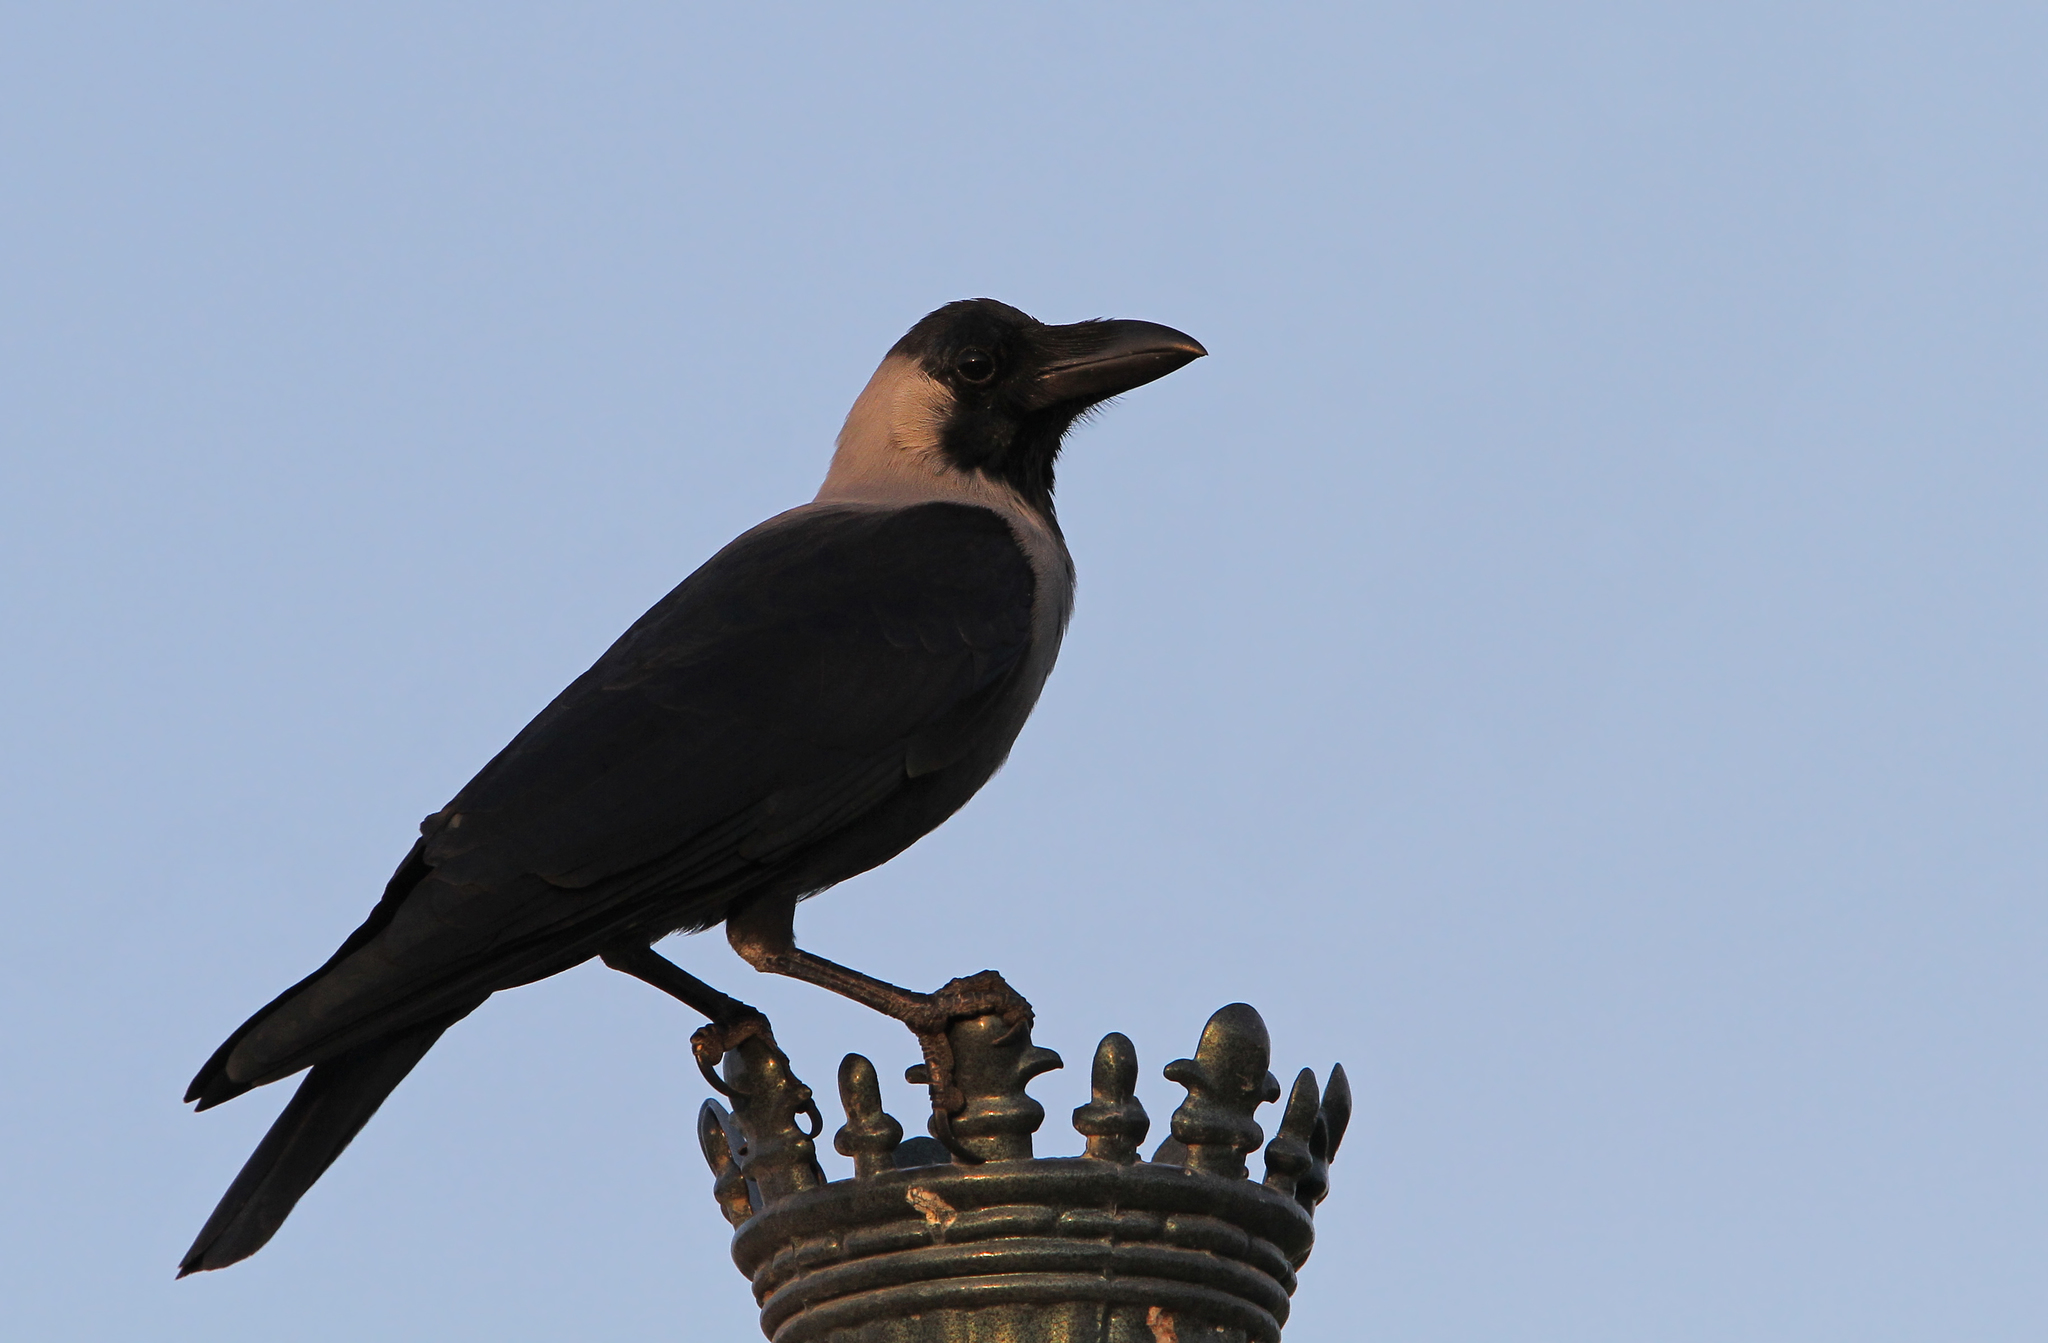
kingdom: Animalia
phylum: Chordata
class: Aves
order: Passeriformes
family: Corvidae
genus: Corvus
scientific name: Corvus splendens
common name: House crow
